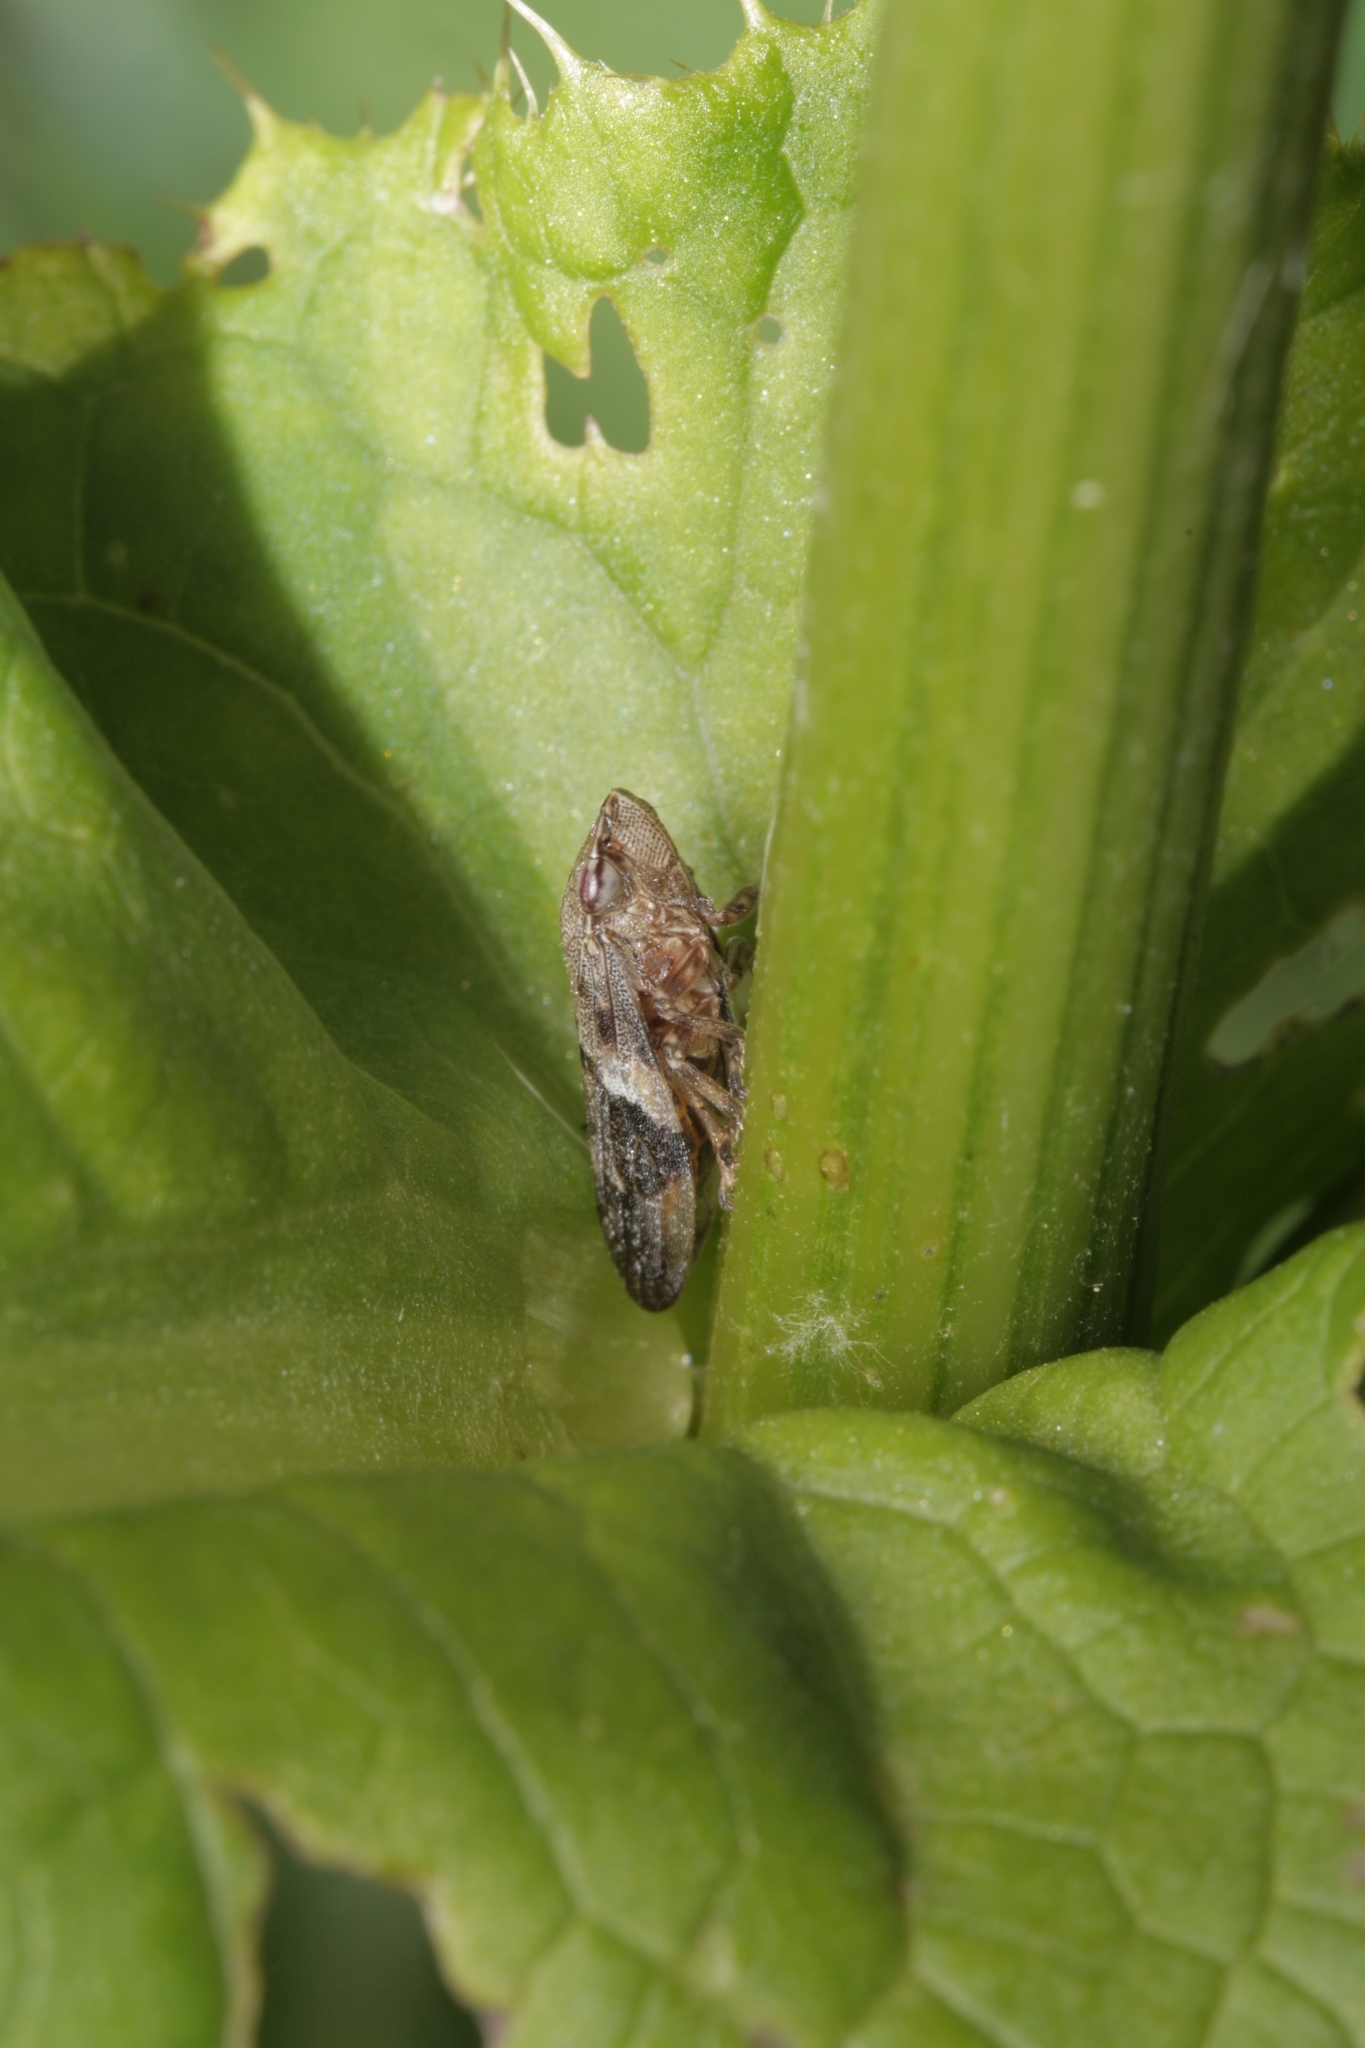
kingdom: Animalia
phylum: Arthropoda
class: Insecta
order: Hemiptera
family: Aphrophoridae
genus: Aphrophora
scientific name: Aphrophora alni
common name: European alder spittlebug
